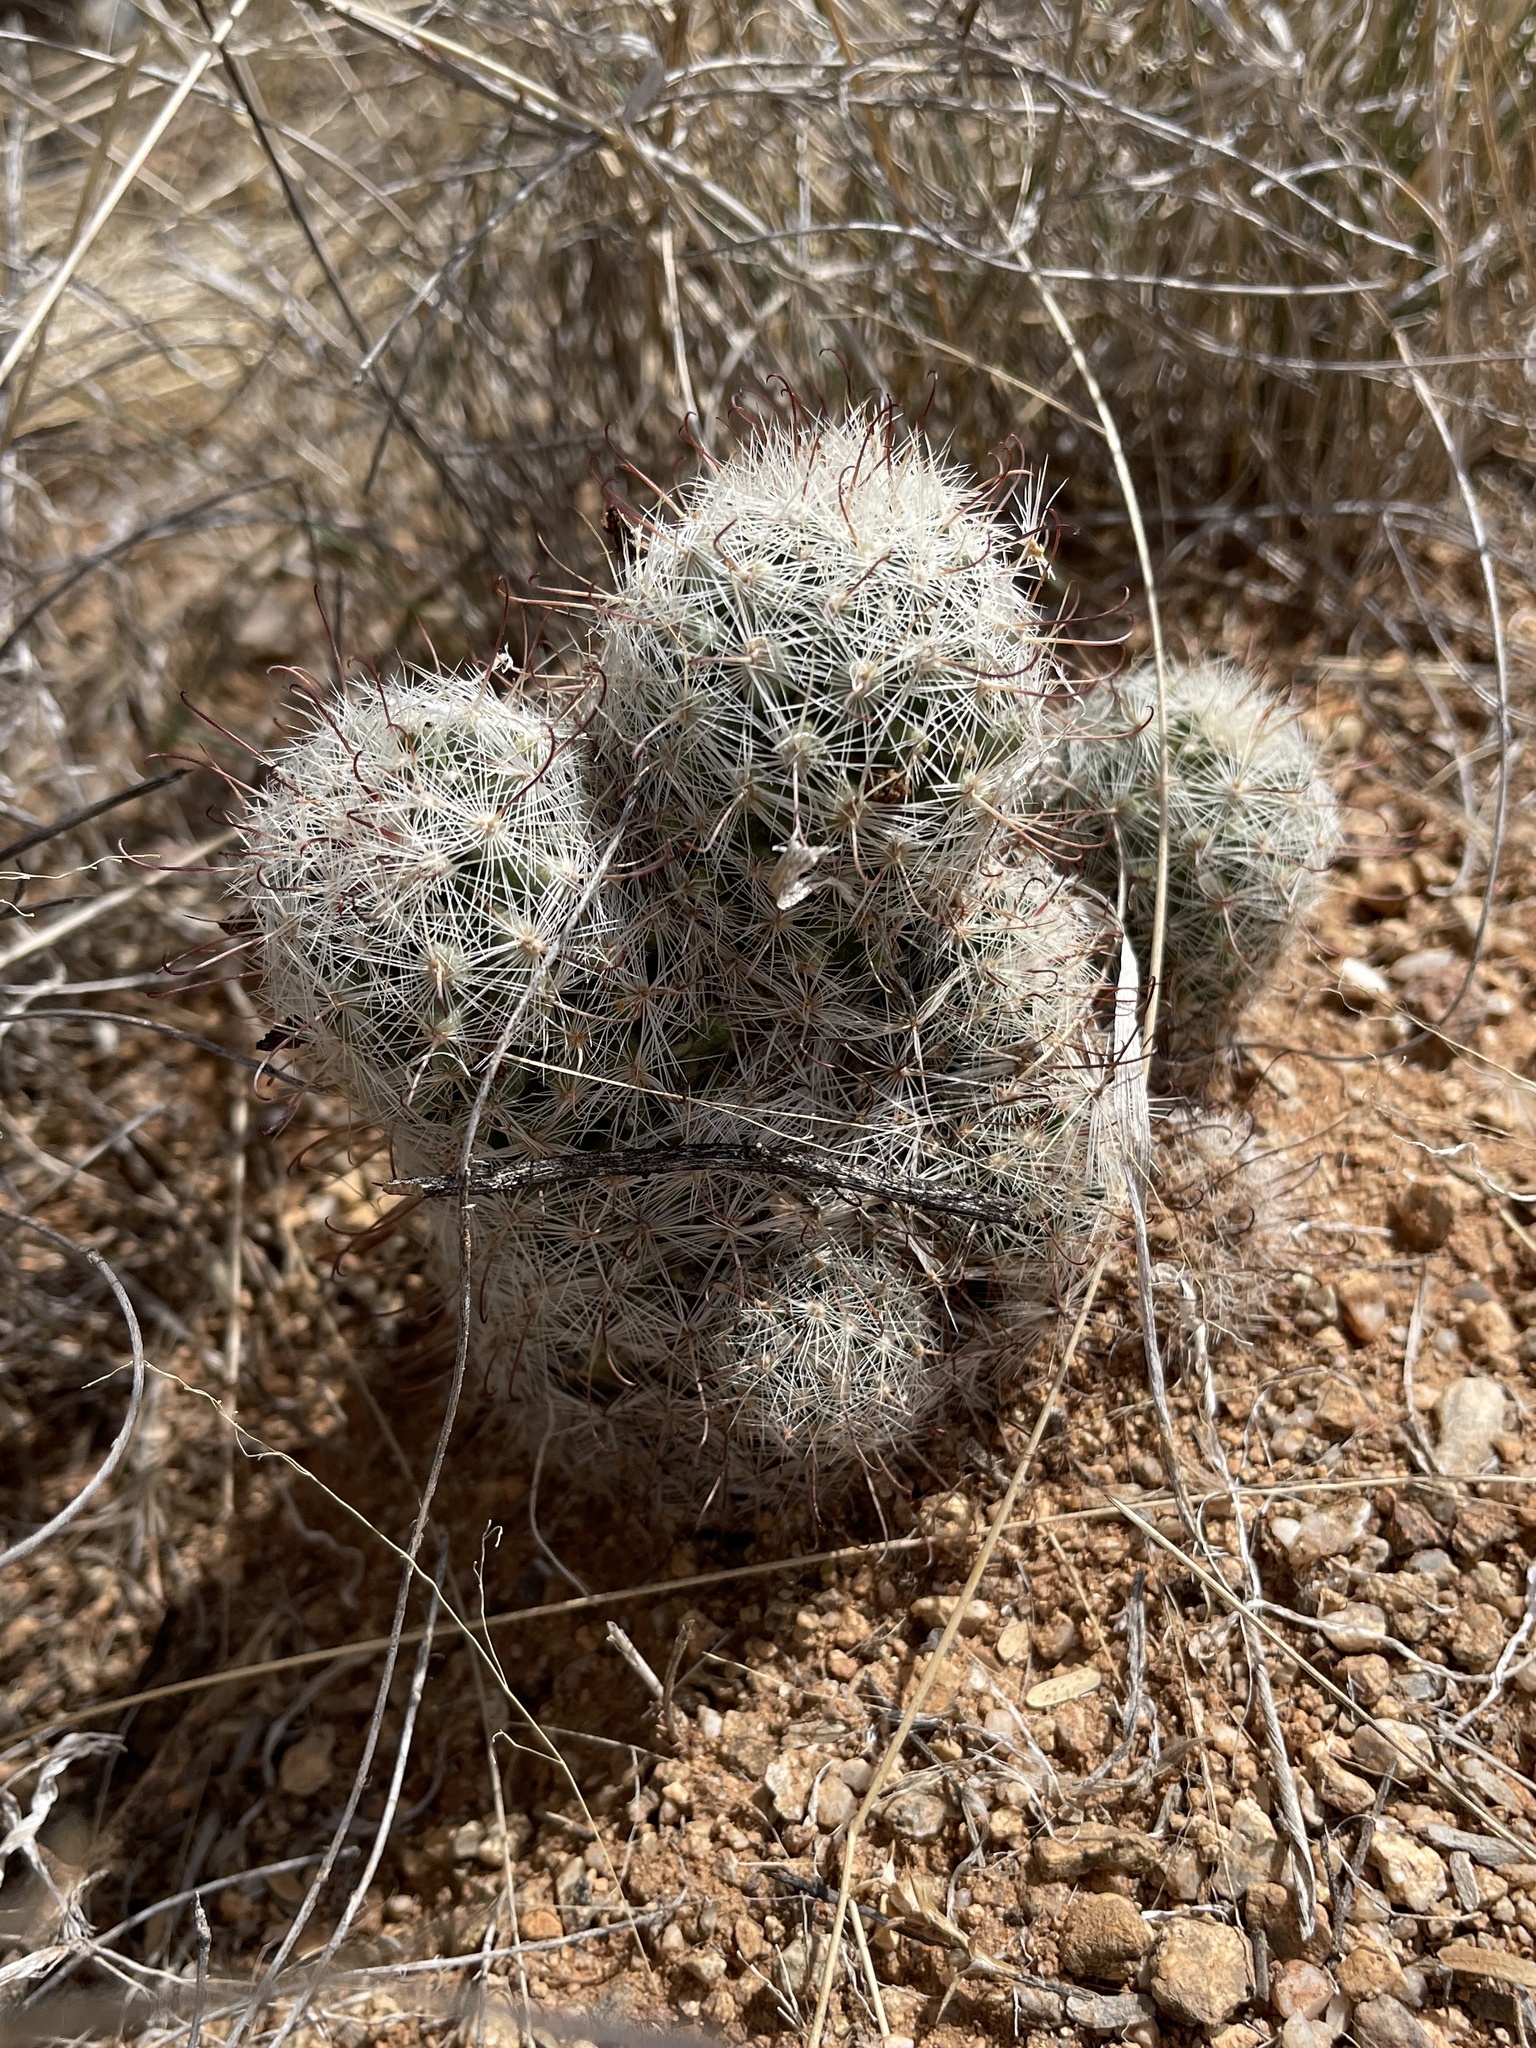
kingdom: Plantae
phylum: Tracheophyta
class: Magnoliopsida
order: Caryophyllales
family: Cactaceae
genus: Cochemiea
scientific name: Cochemiea grahamii
